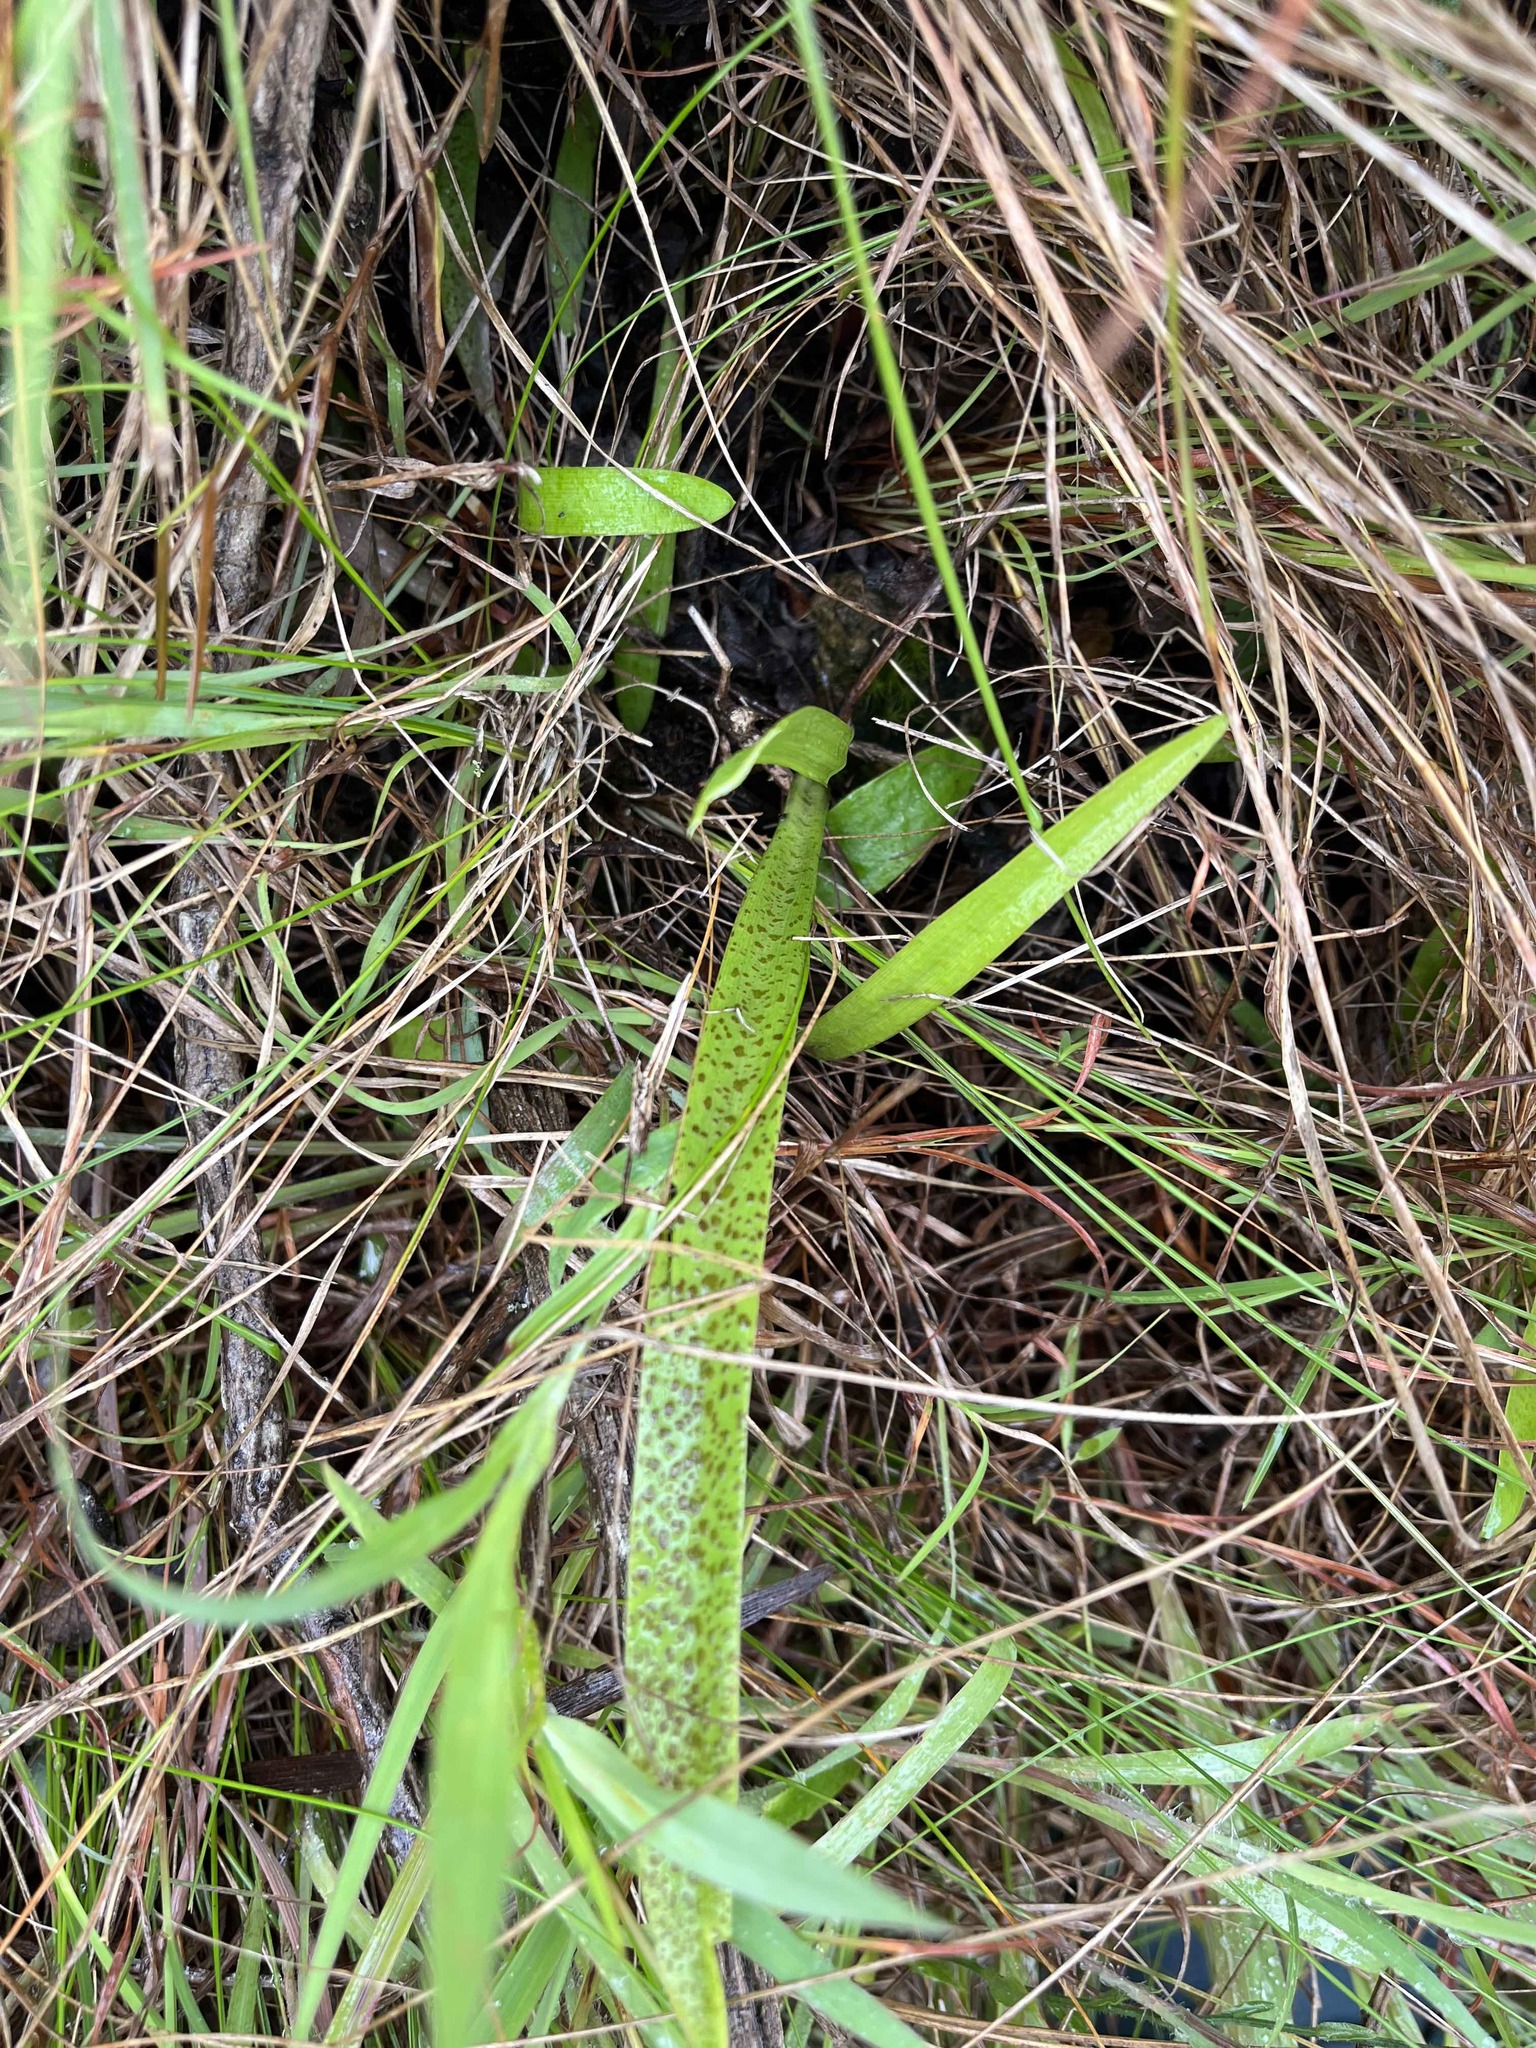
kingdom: Plantae
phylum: Tracheophyta
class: Liliopsida
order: Asparagales
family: Asparagaceae
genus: Ledebouria
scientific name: Ledebouria cooperi
